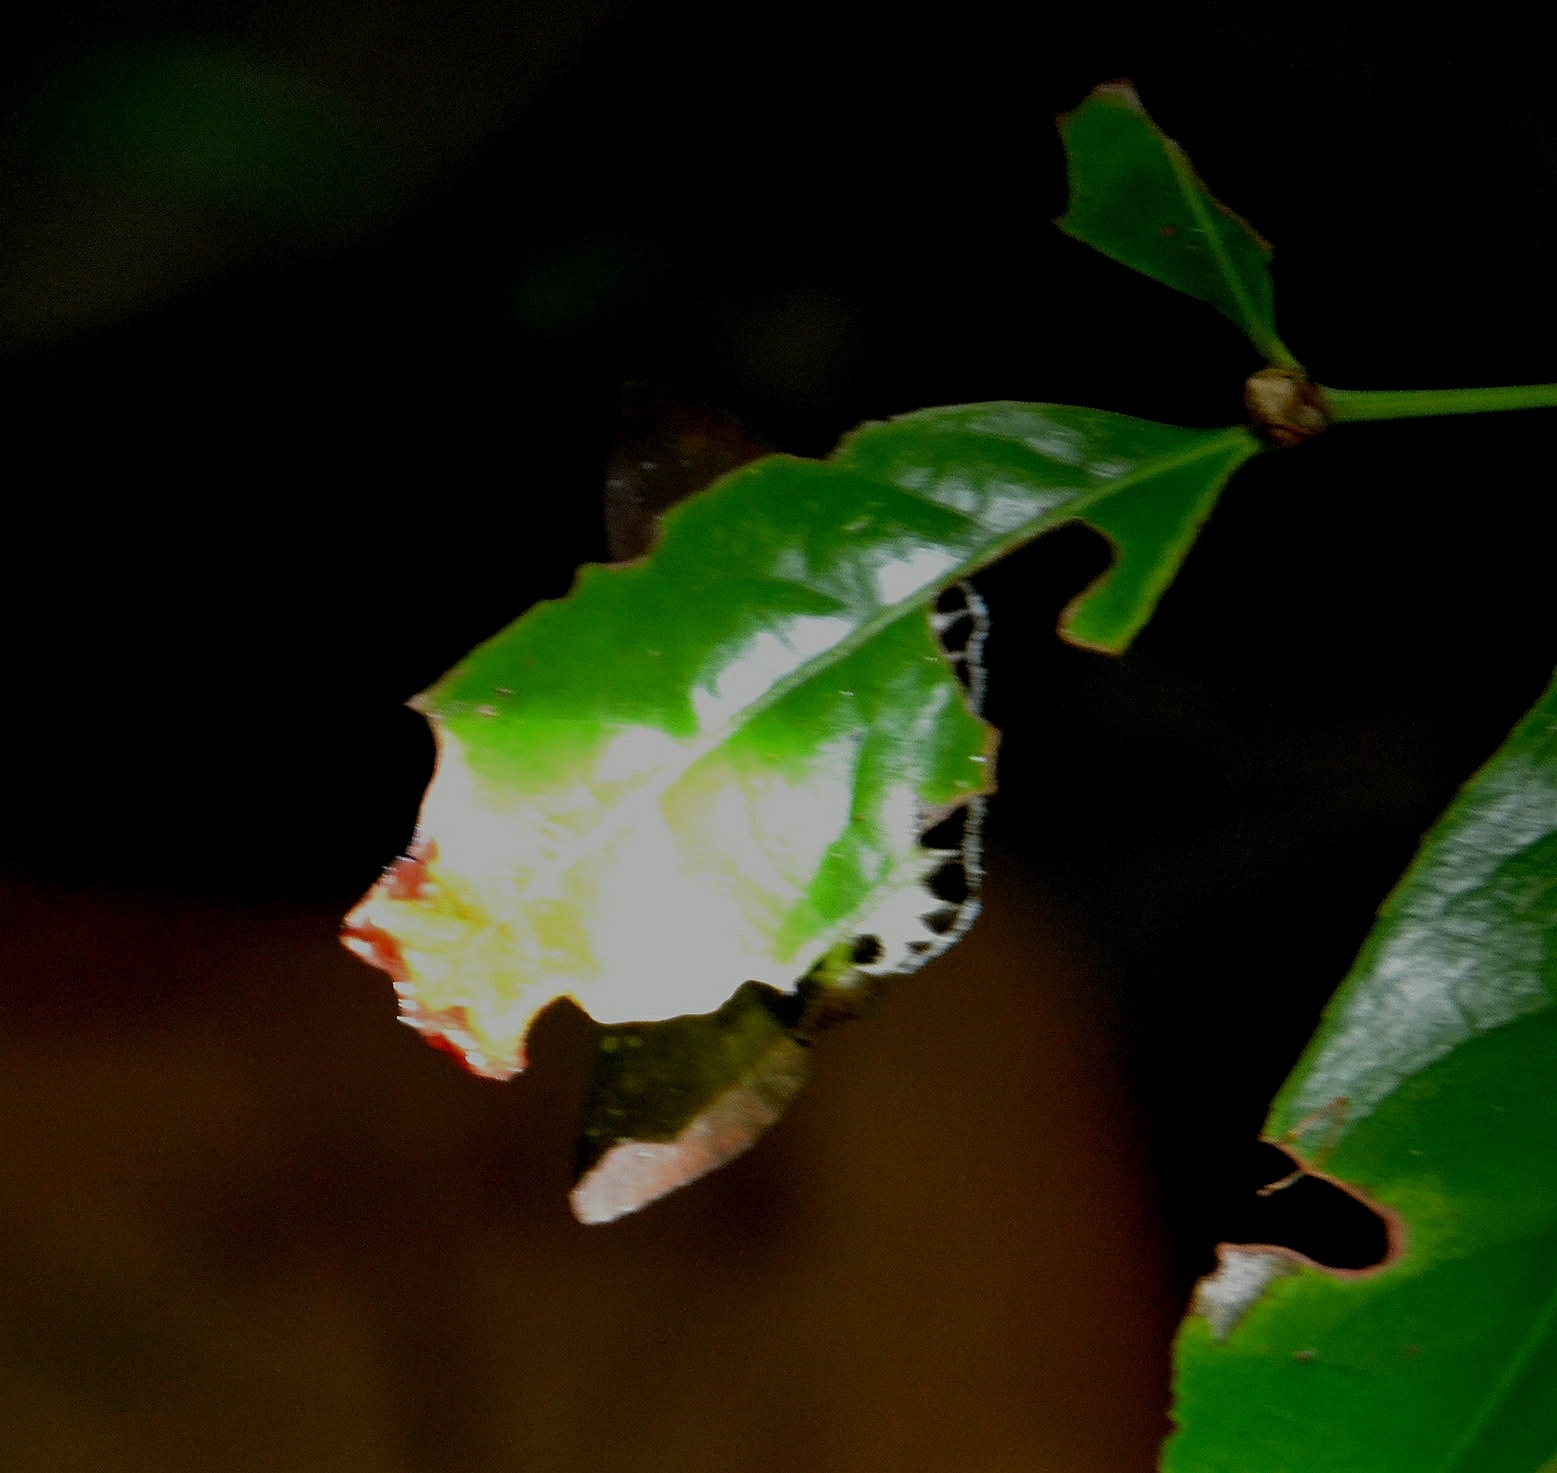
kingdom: Animalia
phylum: Arthropoda
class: Insecta
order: Lepidoptera
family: Hesperiidae
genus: Tagiades
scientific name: Tagiades litigiosa
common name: Water snow flat
